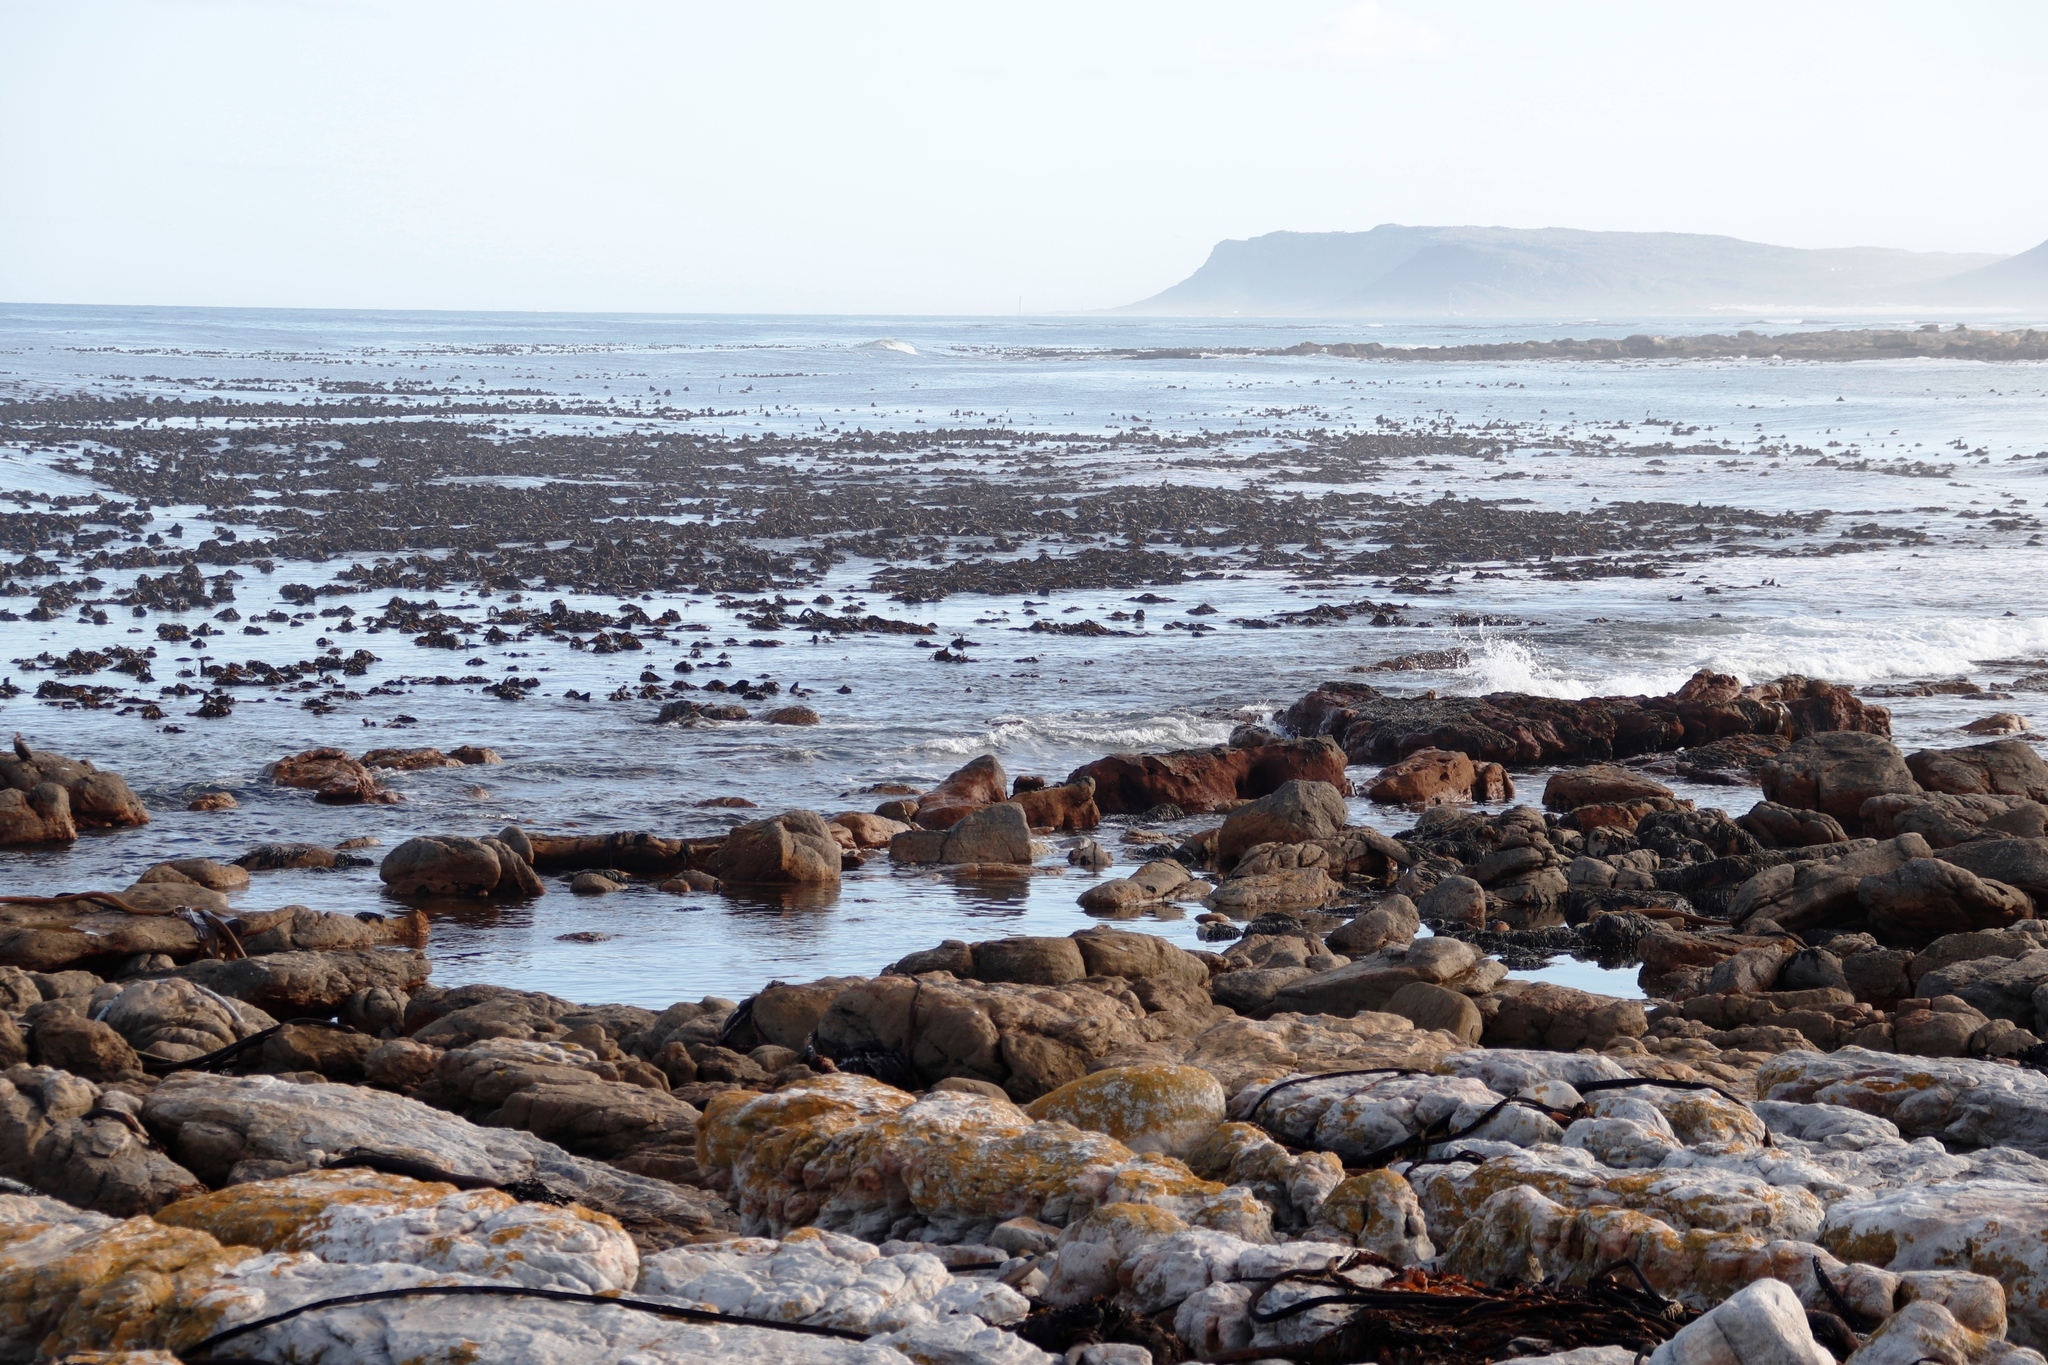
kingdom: Chromista
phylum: Ochrophyta
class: Phaeophyceae
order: Laminariales
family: Lessoniaceae
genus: Ecklonia
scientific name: Ecklonia
